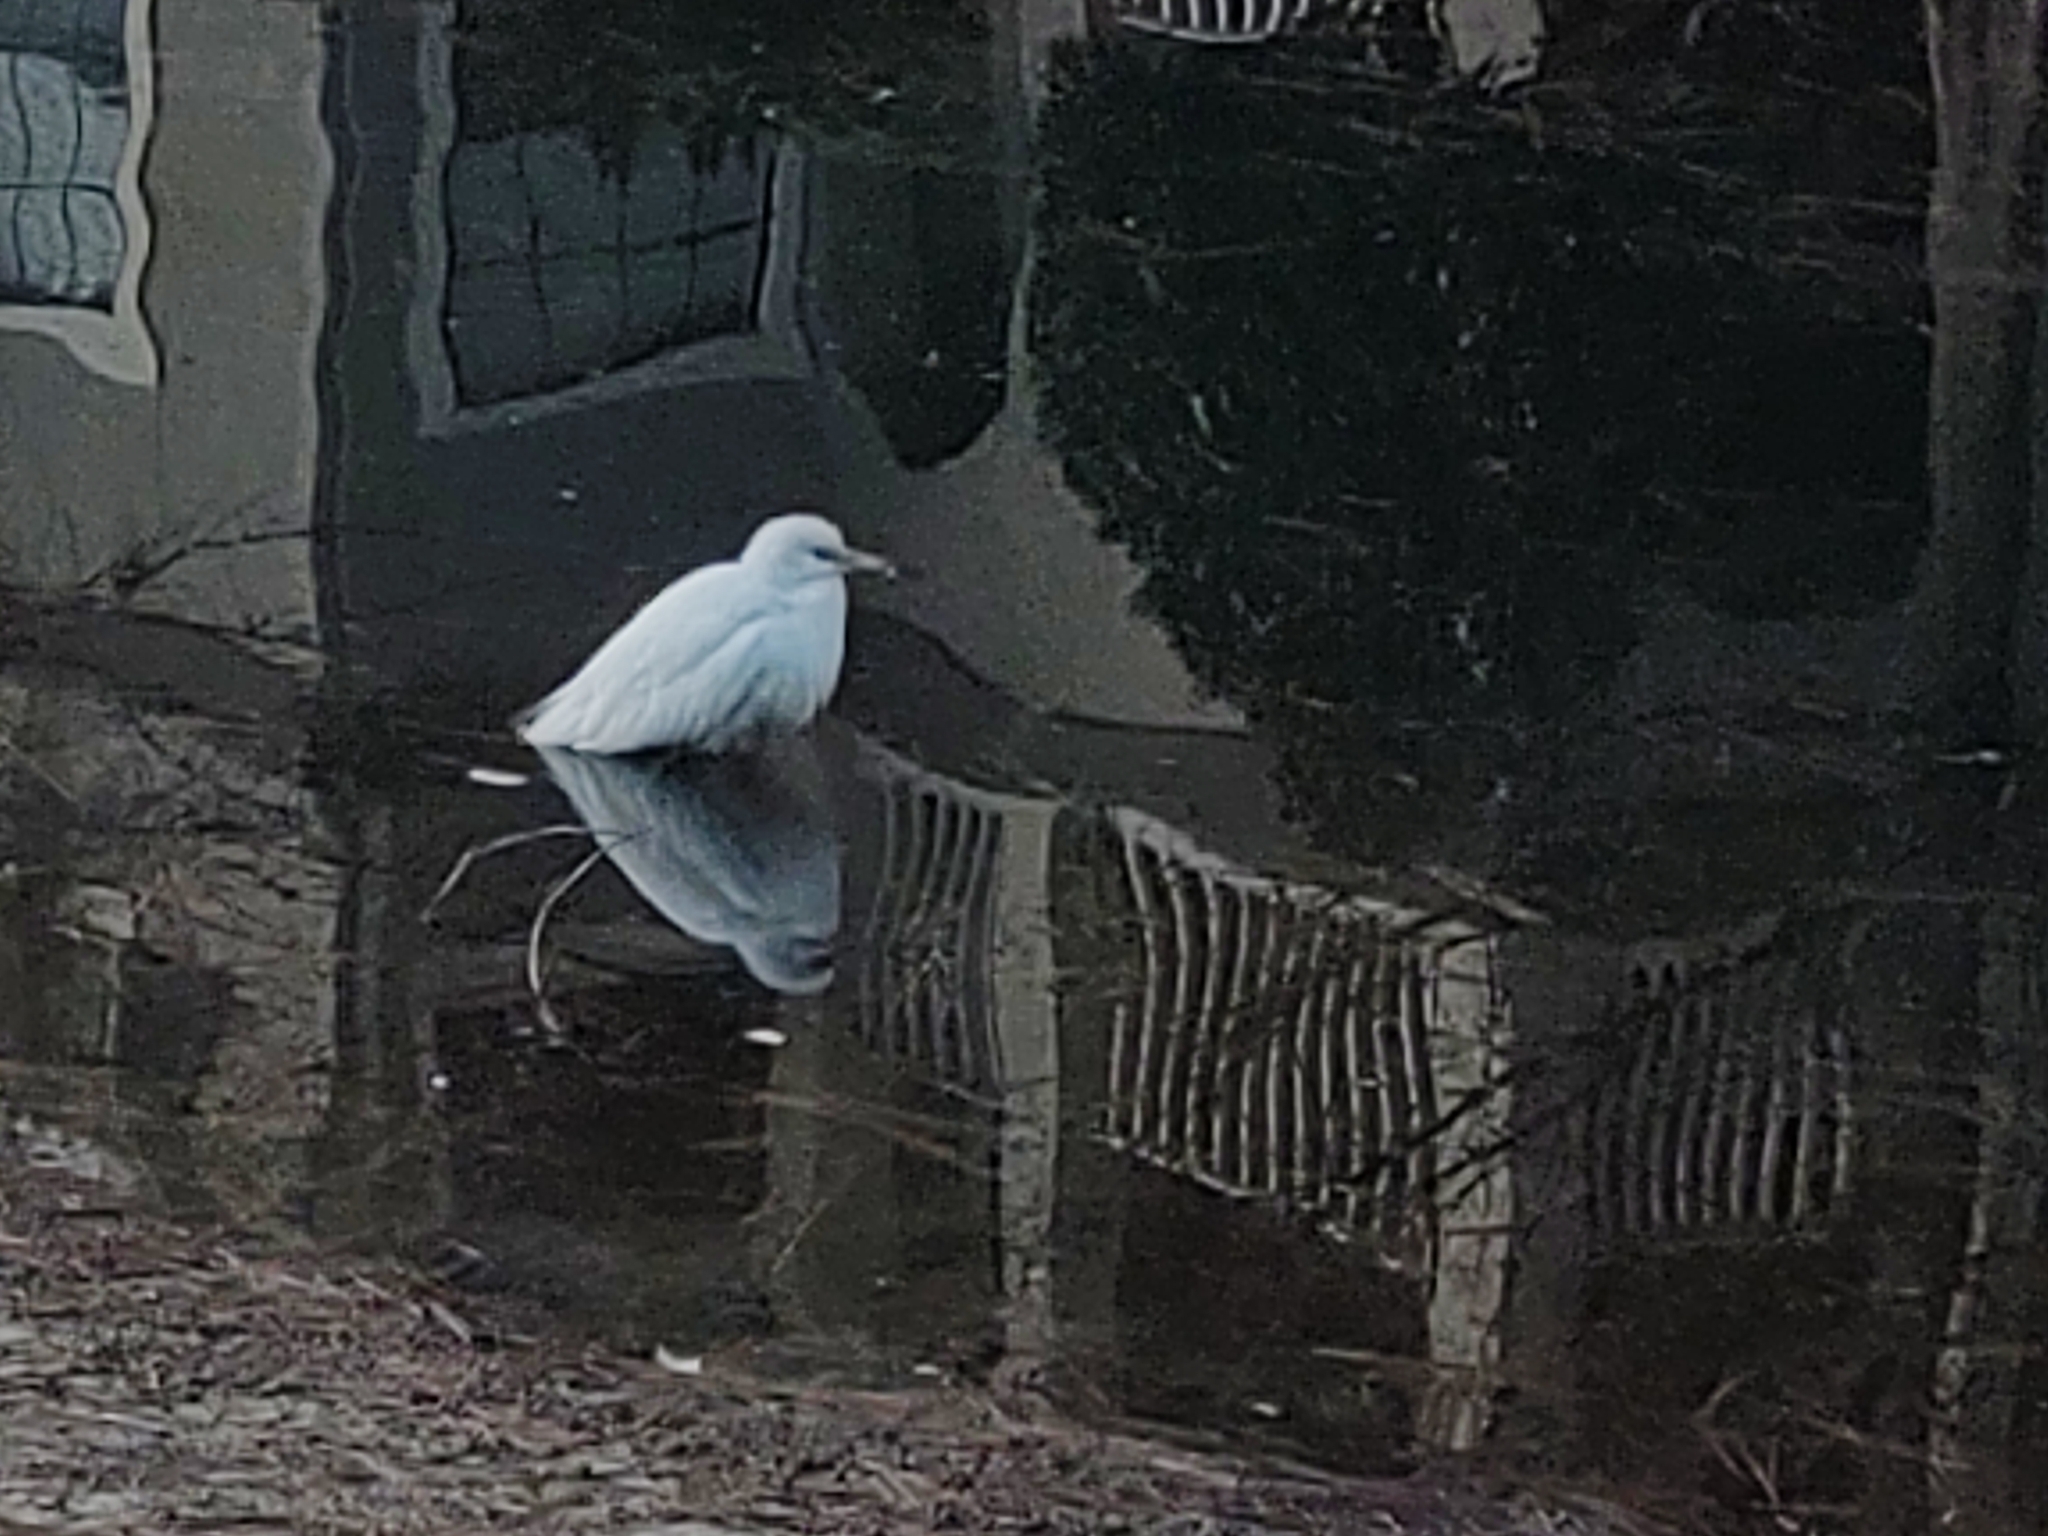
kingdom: Animalia
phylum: Chordata
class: Aves
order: Pelecaniformes
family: Ardeidae
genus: Egretta
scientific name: Egretta caerulea
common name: Little blue heron
